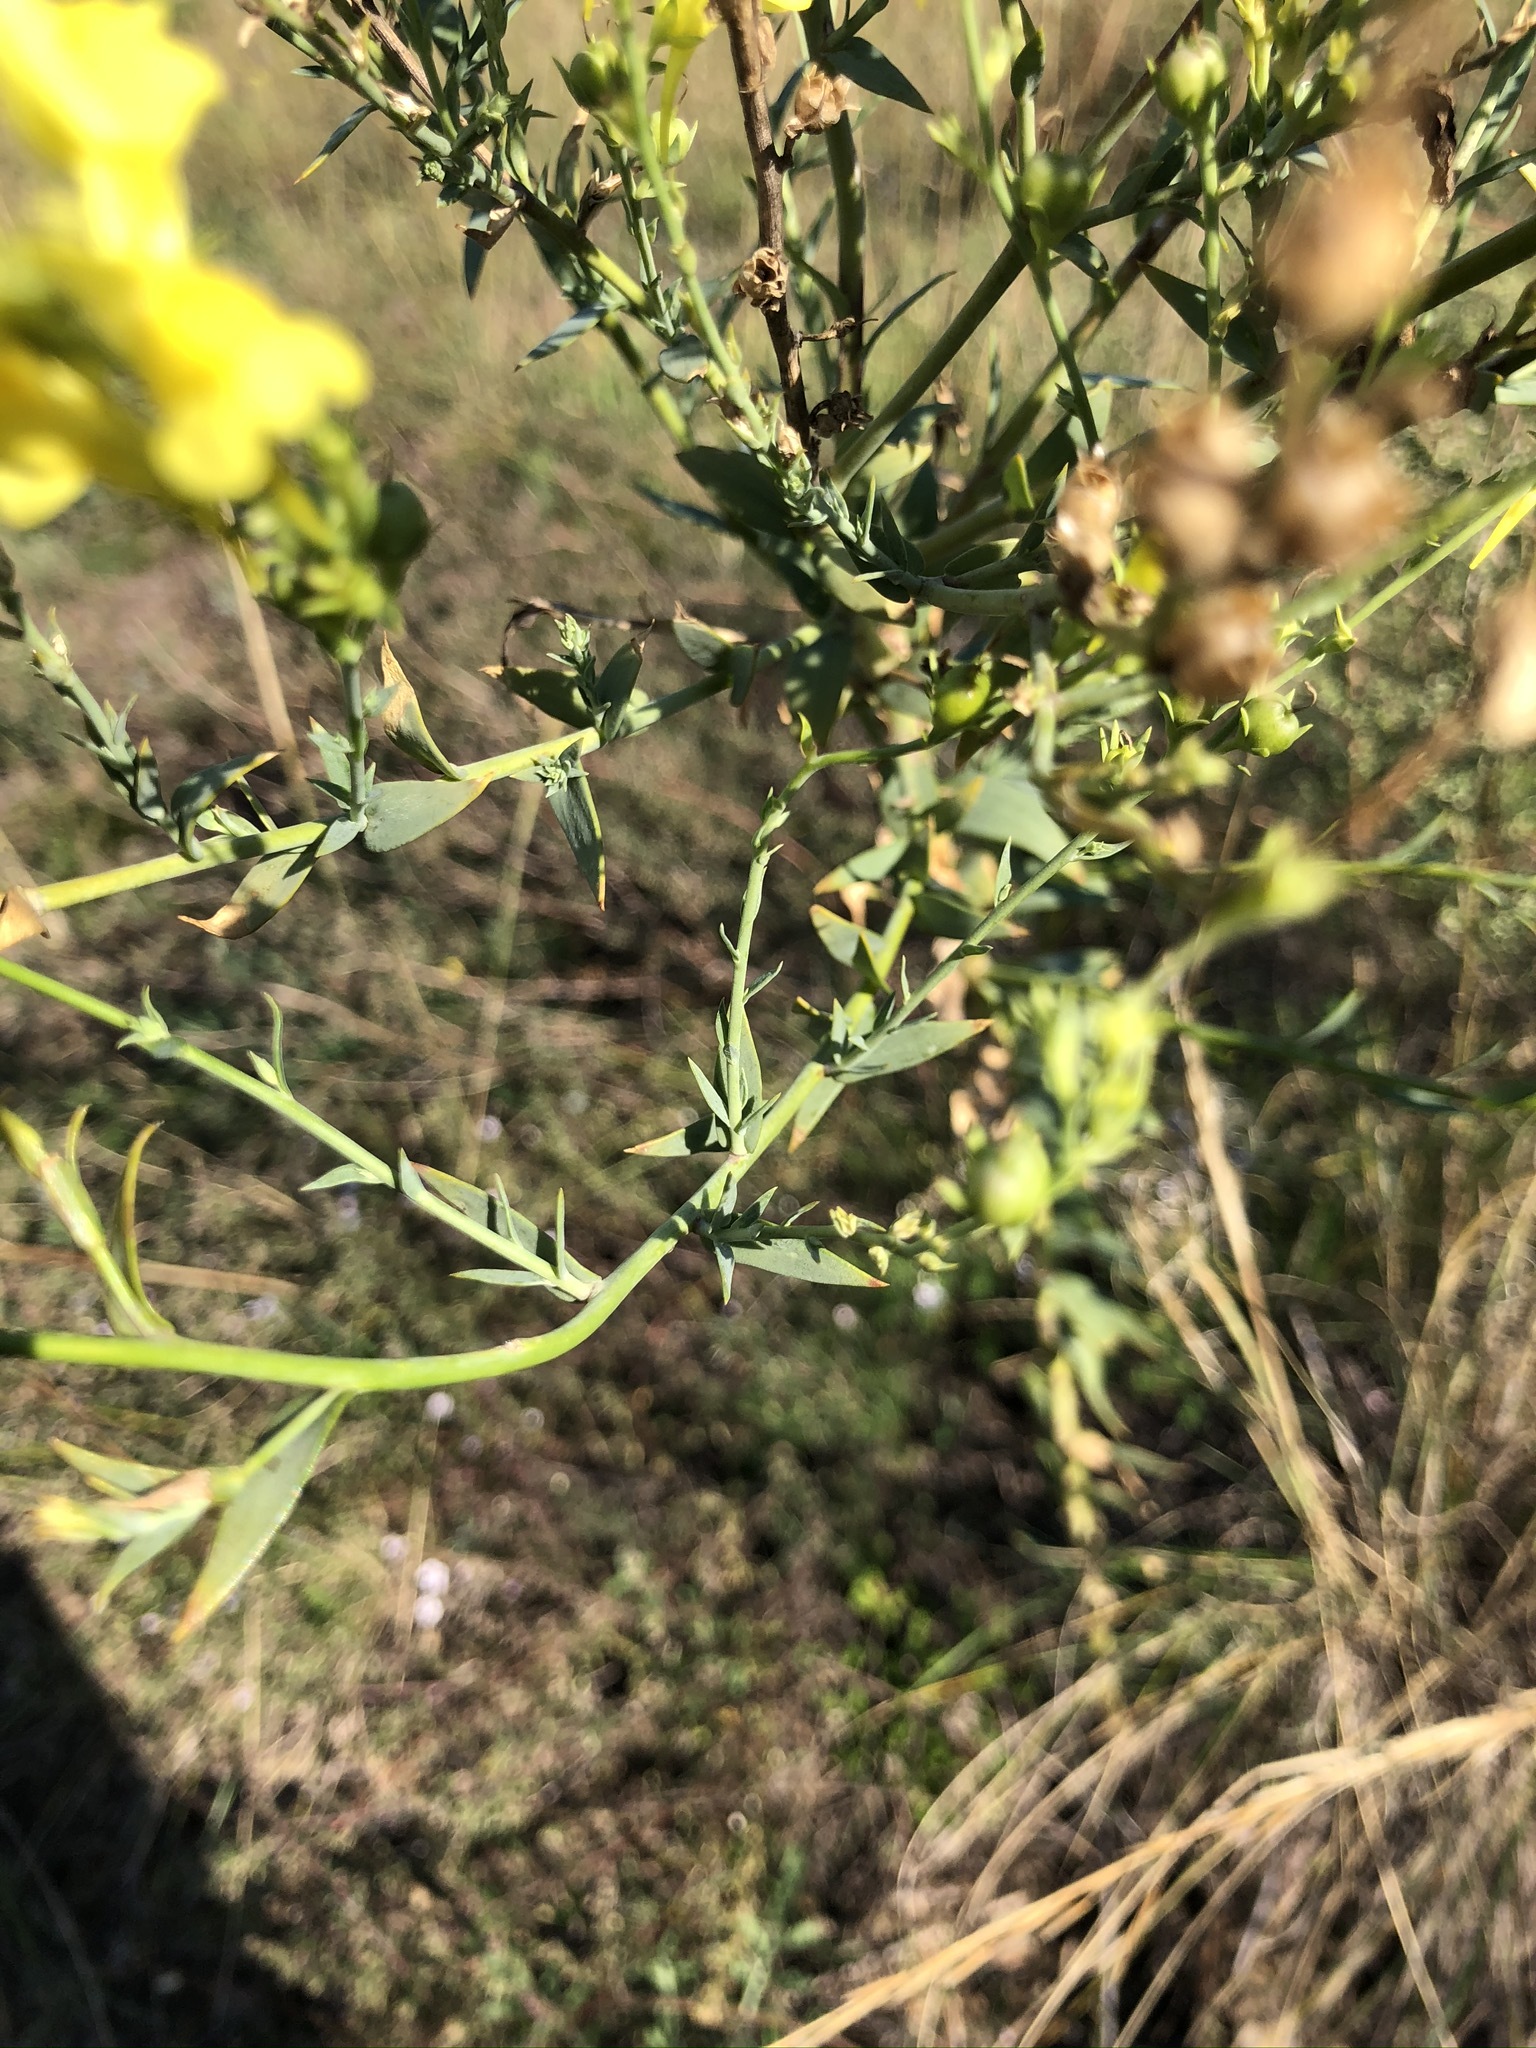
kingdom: Plantae
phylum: Tracheophyta
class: Magnoliopsida
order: Lamiales
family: Plantaginaceae
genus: Linaria
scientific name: Linaria genistifolia
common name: Broomleaf toadflax
